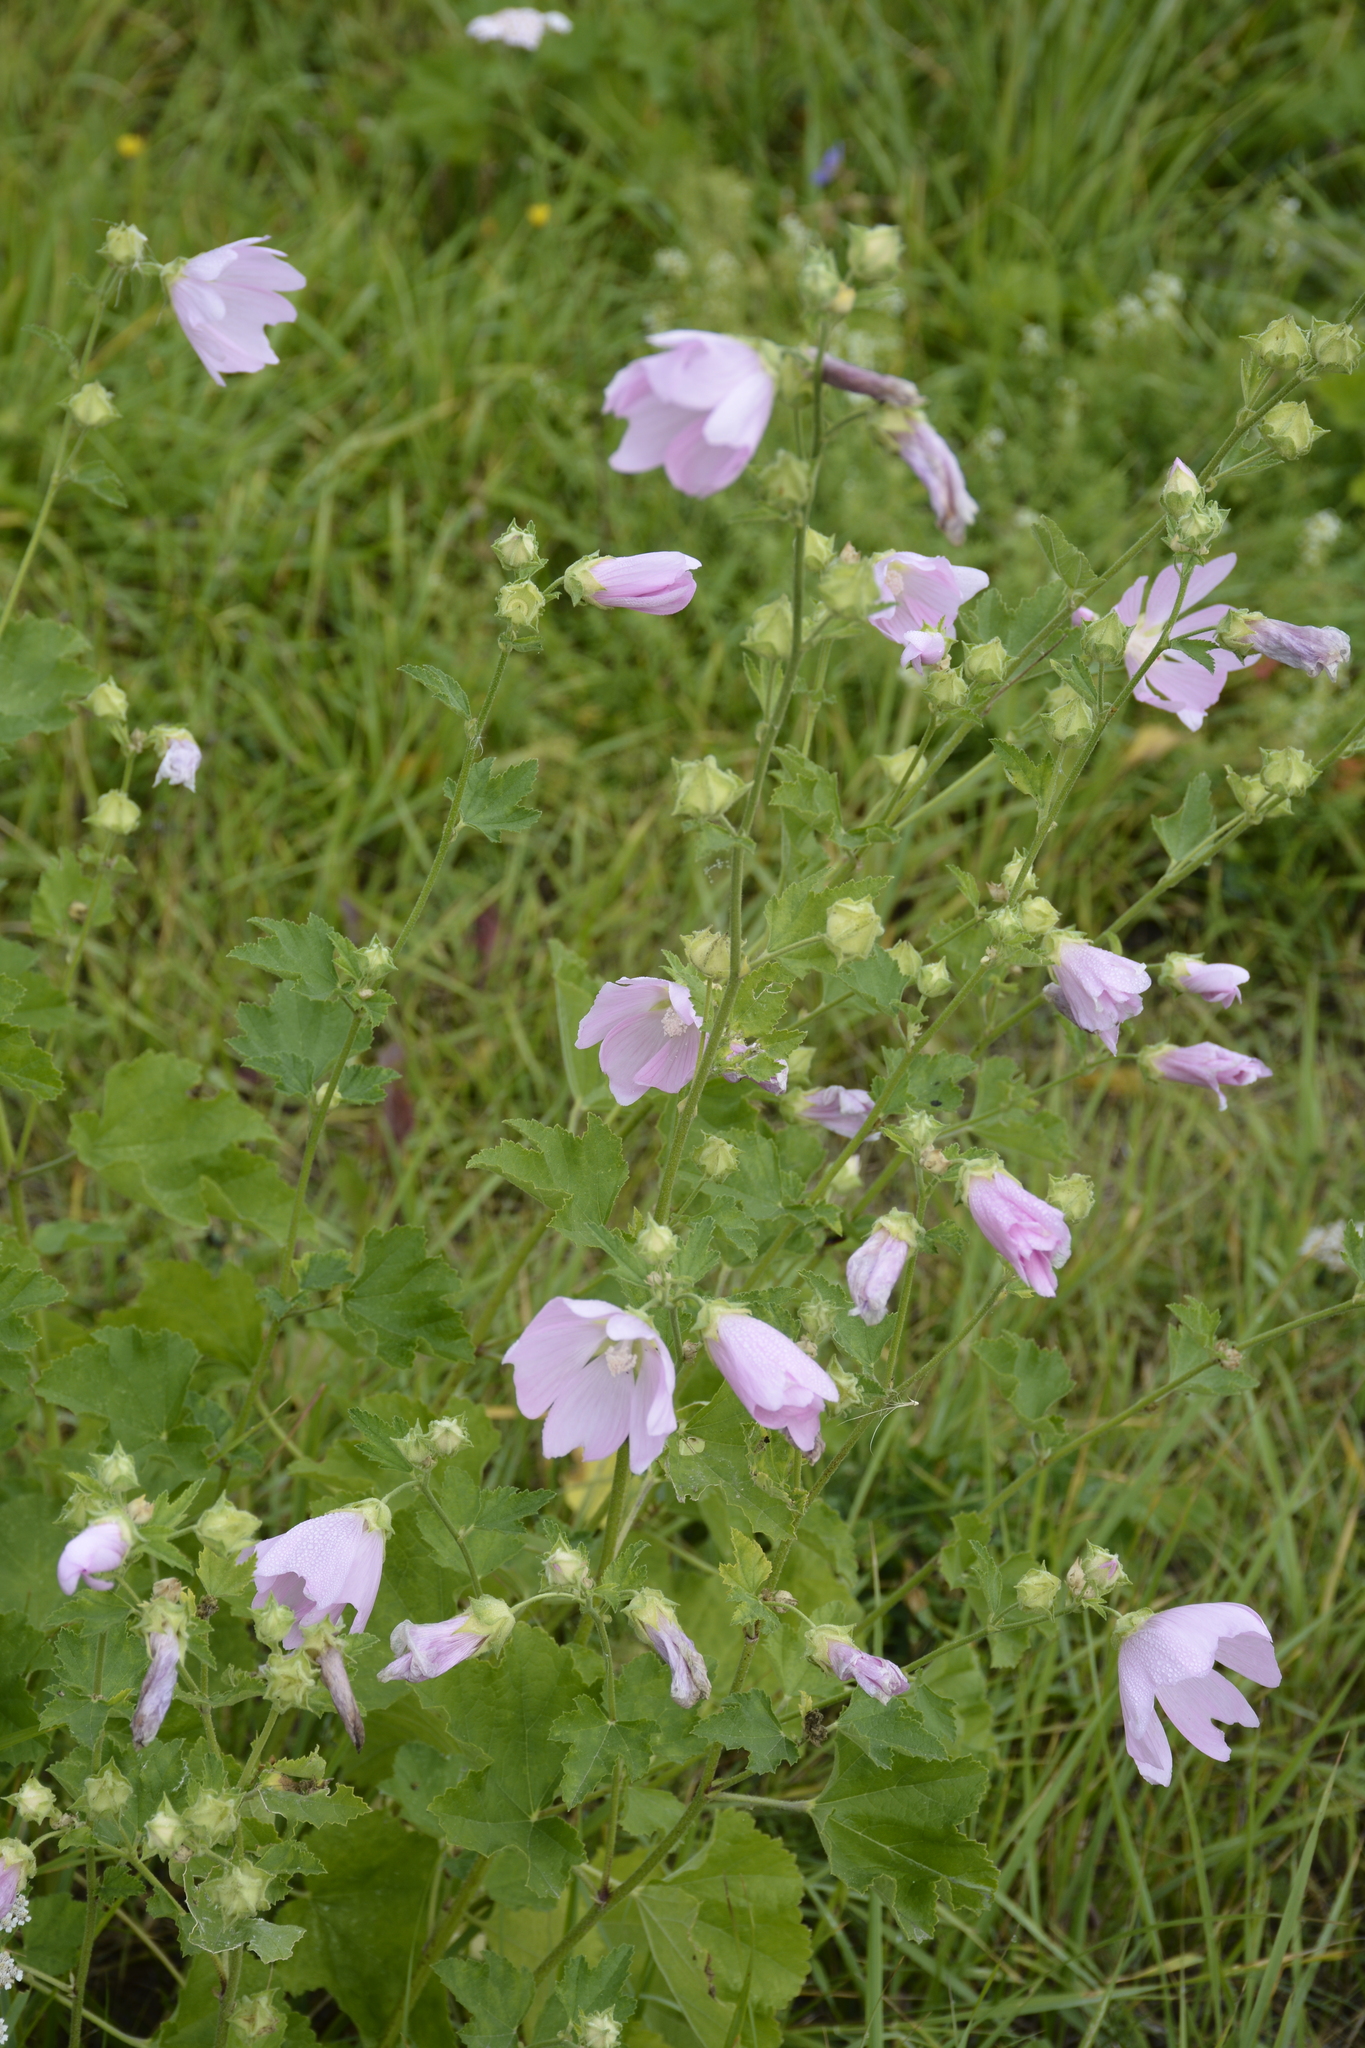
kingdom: Plantae
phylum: Tracheophyta
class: Magnoliopsida
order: Malvales
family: Malvaceae
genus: Malva
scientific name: Malva thuringiaca
